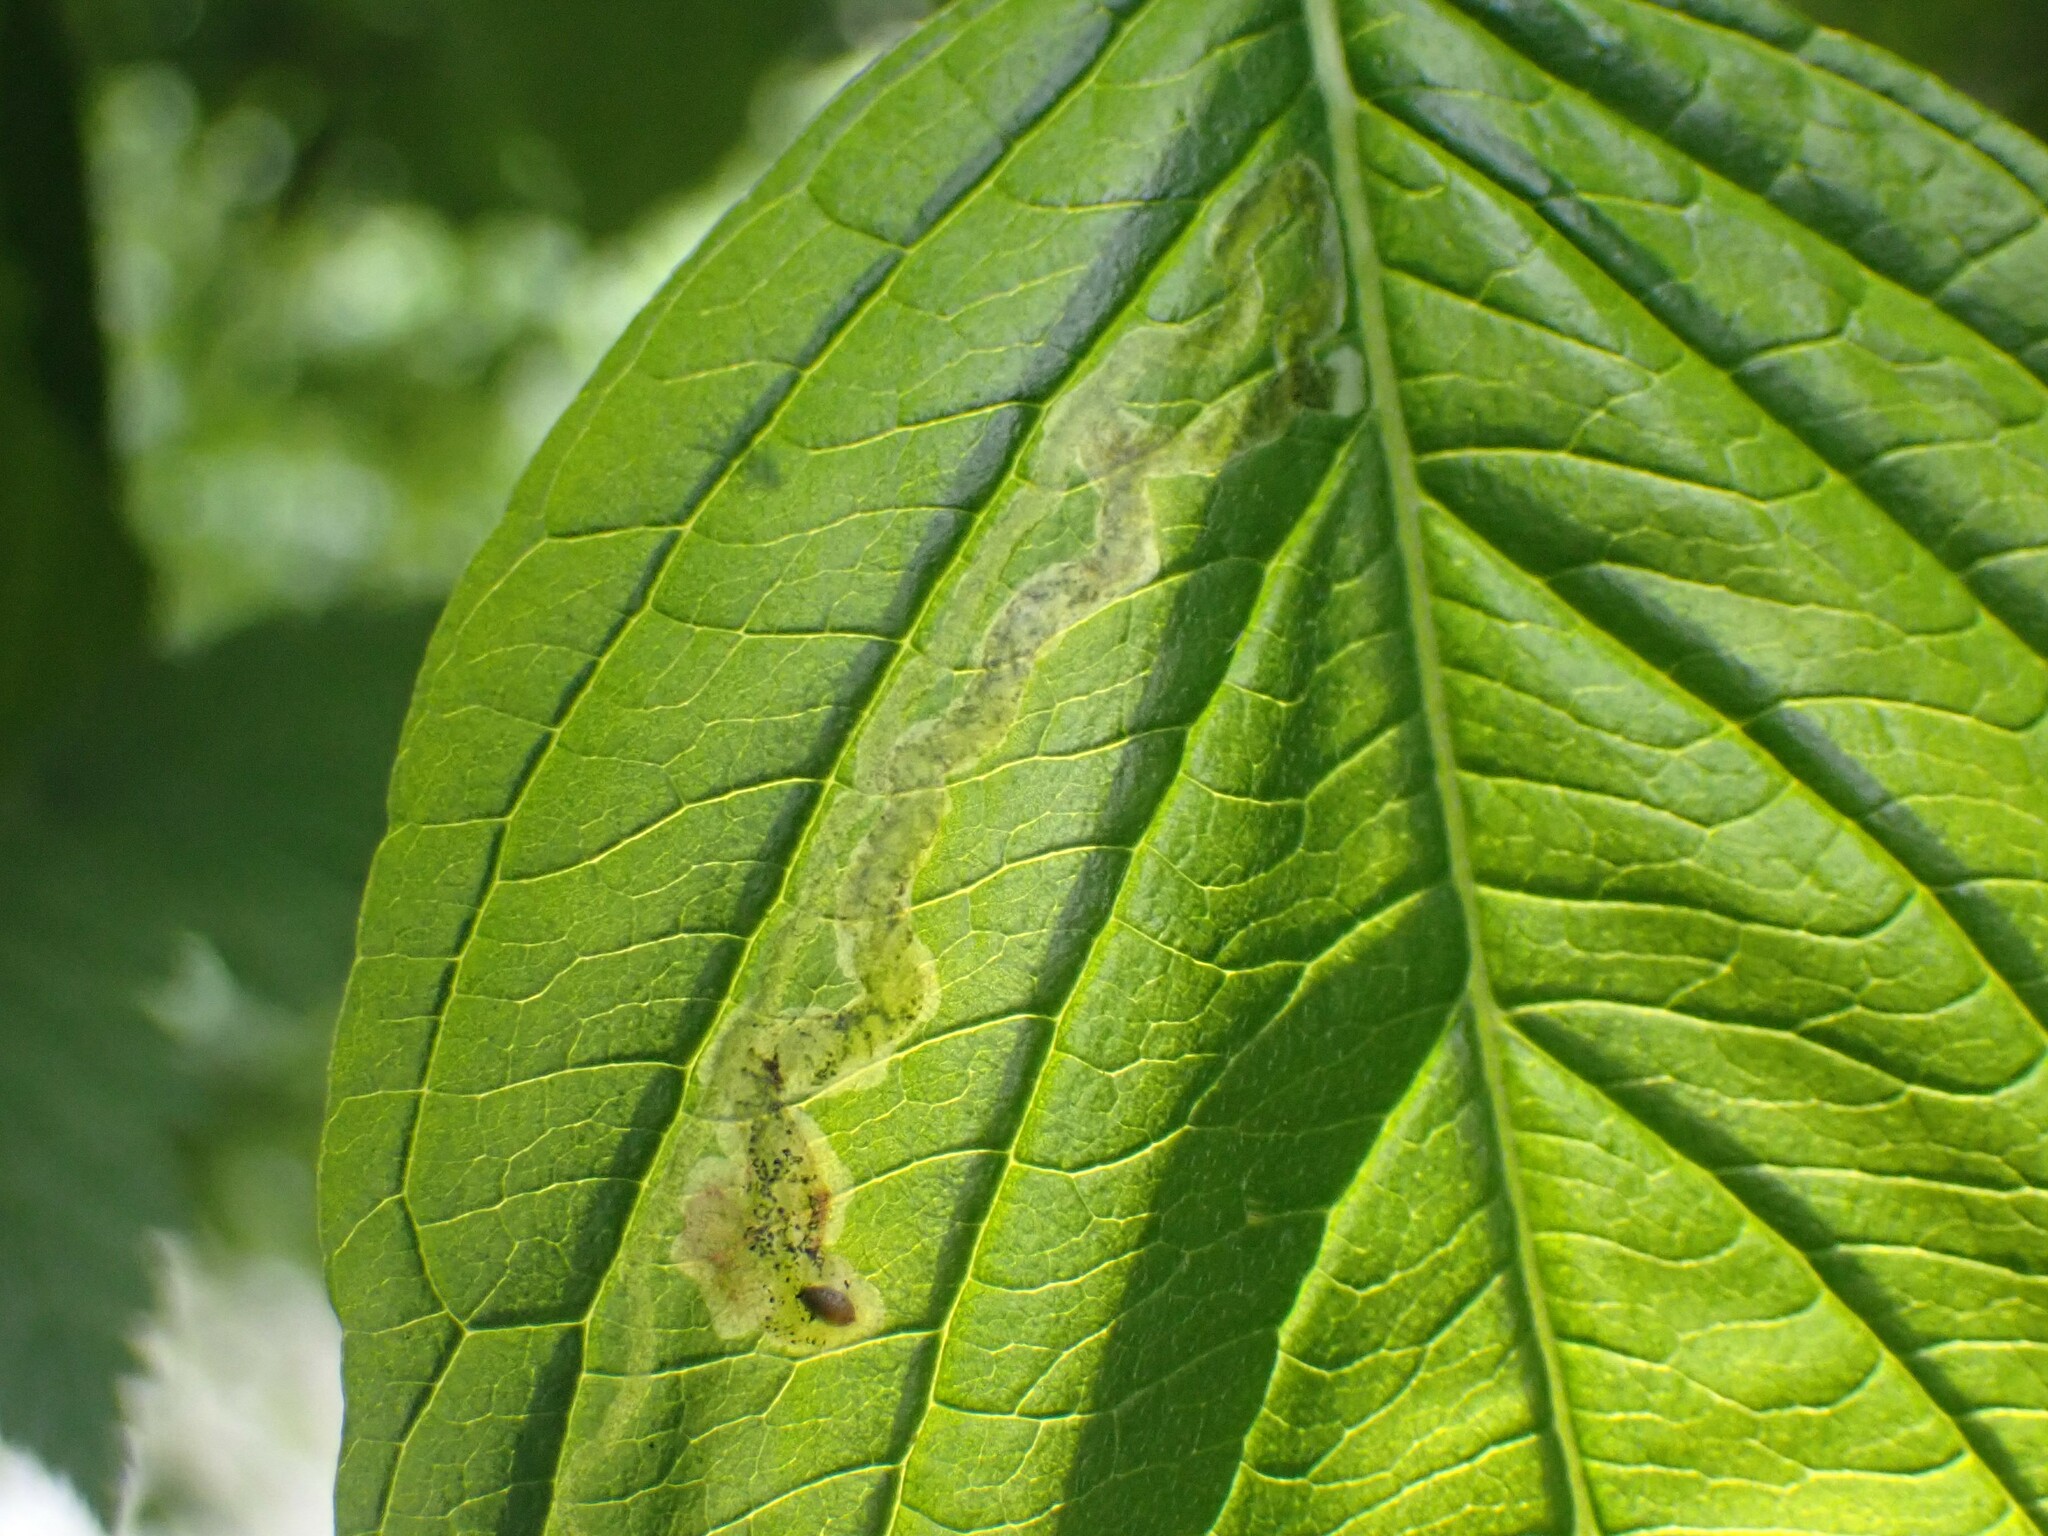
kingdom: Animalia
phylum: Arthropoda
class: Insecta
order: Diptera
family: Agromyzidae
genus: Phytomyza
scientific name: Phytomyza agromyzina
